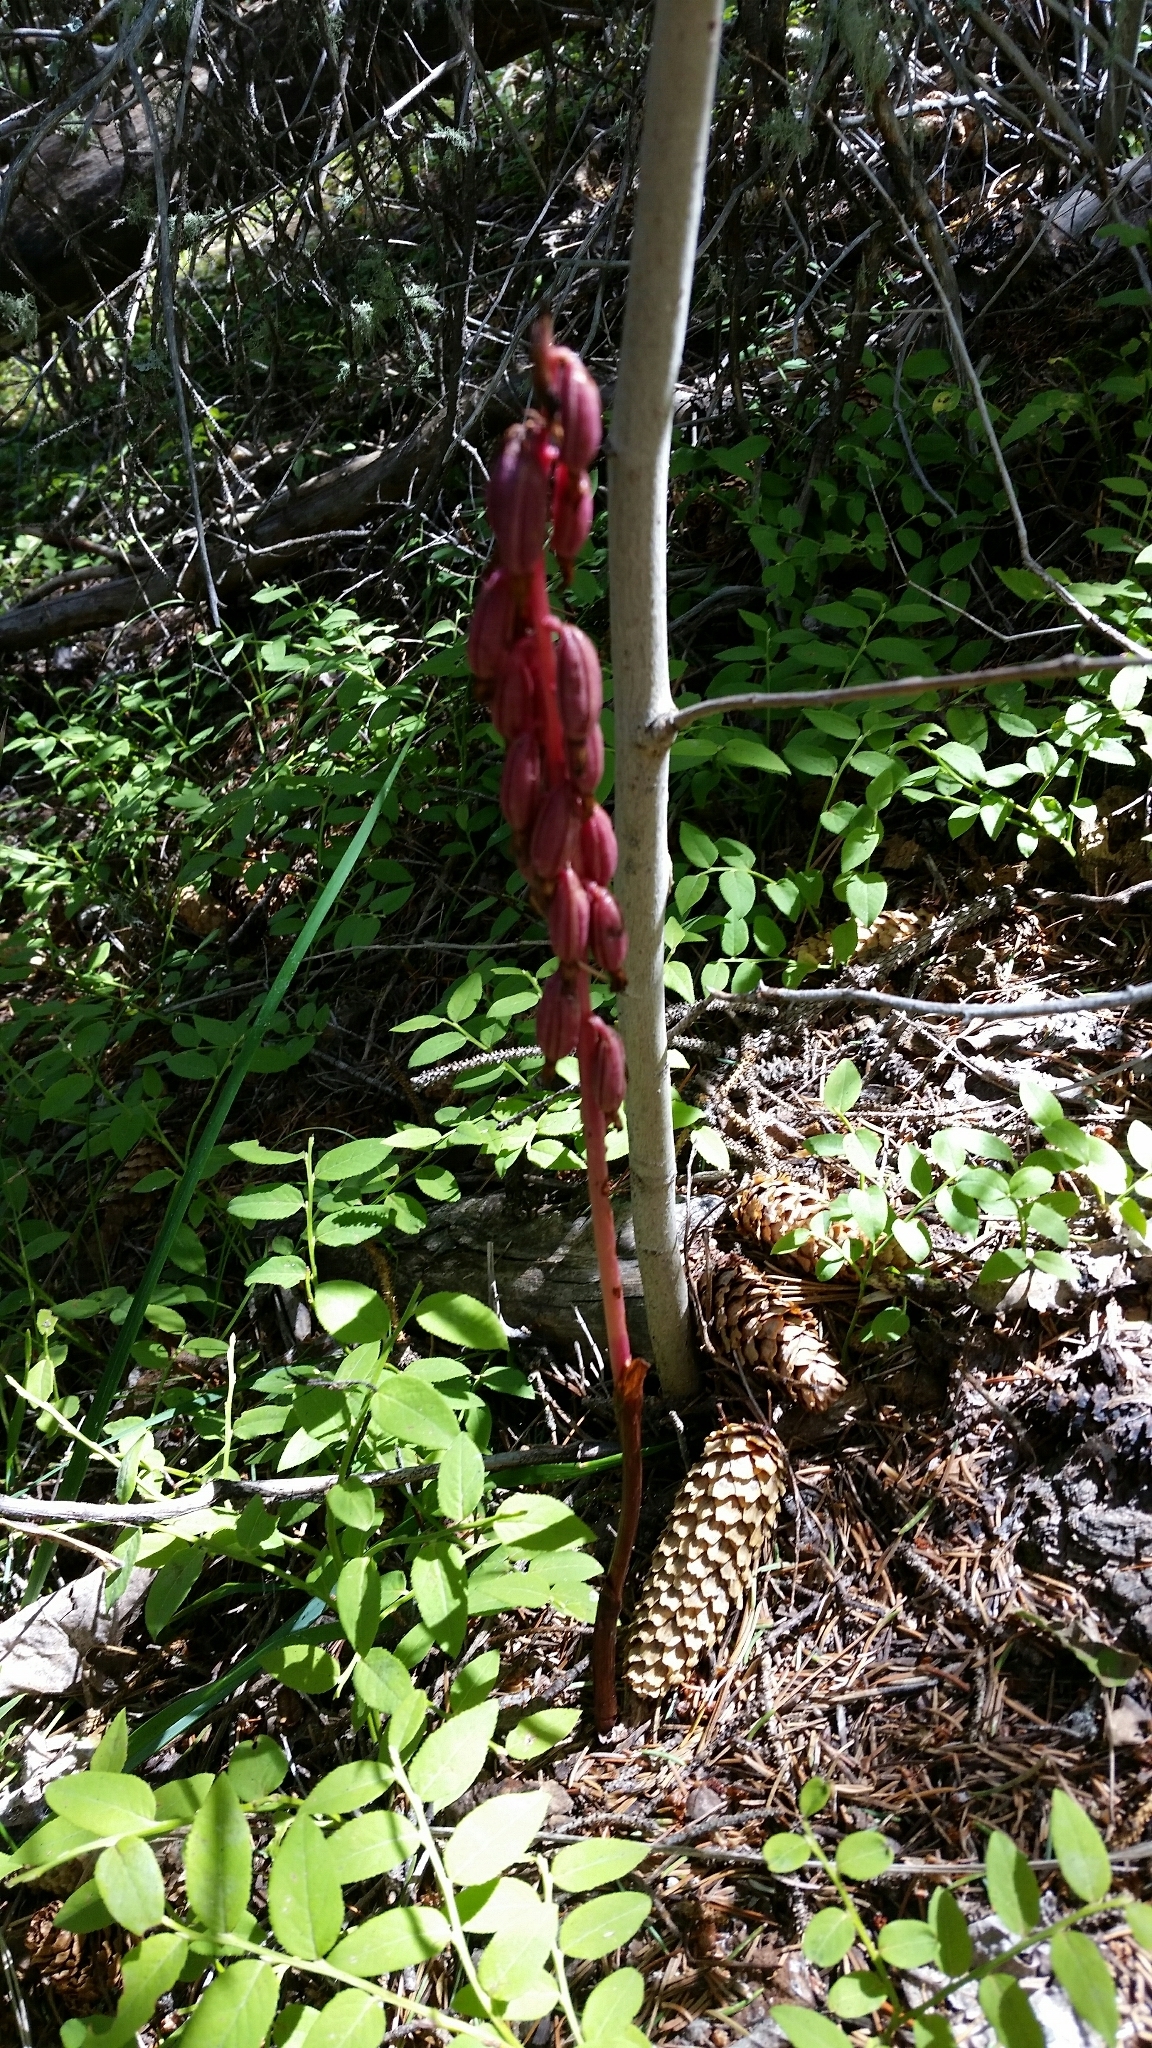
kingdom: Plantae
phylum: Tracheophyta
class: Liliopsida
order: Asparagales
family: Orchidaceae
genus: Corallorhiza
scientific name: Corallorhiza maculata
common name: Spotted coralroot
